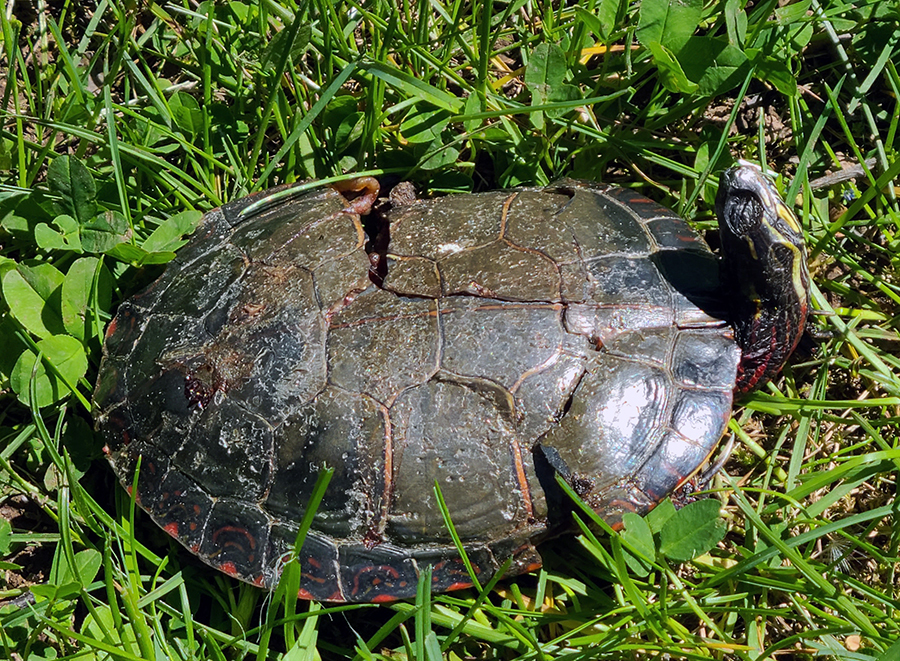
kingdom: Animalia
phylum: Chordata
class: Testudines
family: Emydidae
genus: Chrysemys
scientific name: Chrysemys picta
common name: Painted turtle
